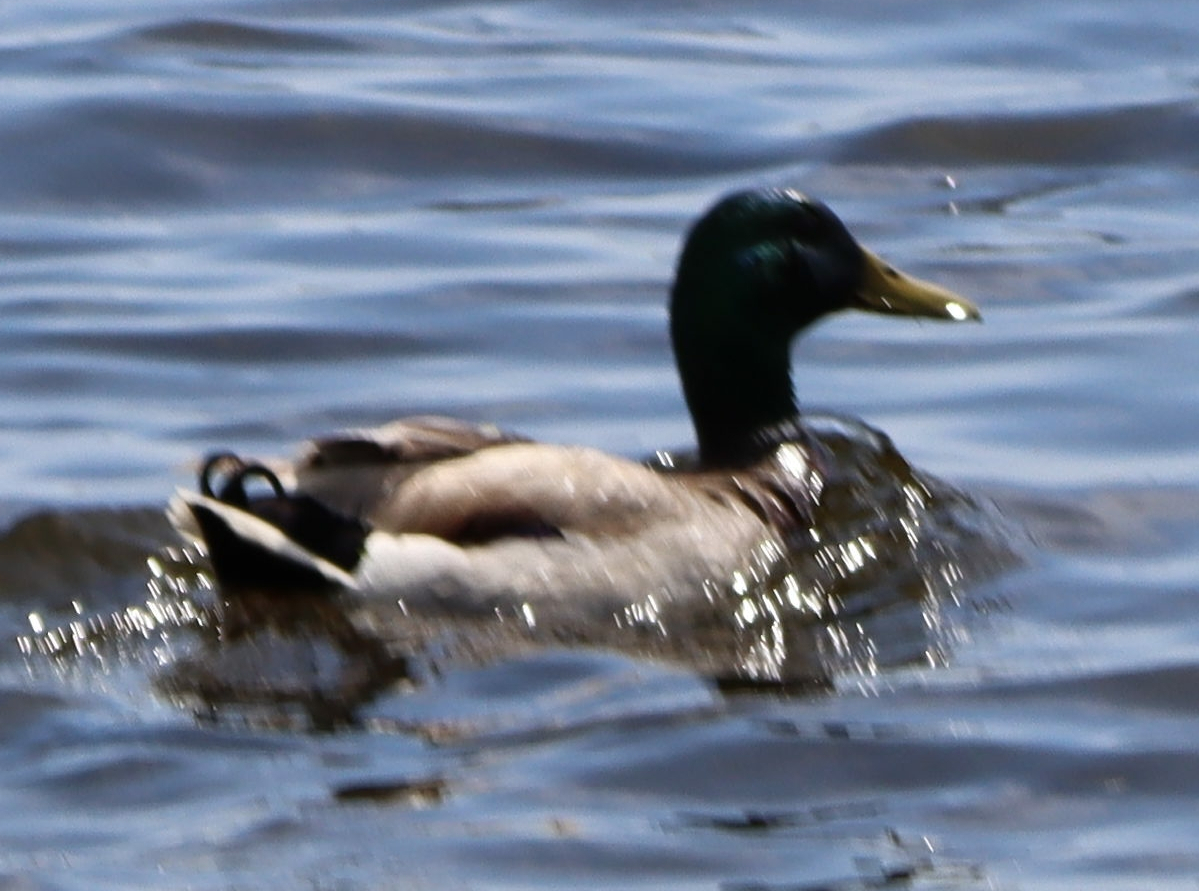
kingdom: Animalia
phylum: Chordata
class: Aves
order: Anseriformes
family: Anatidae
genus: Anas
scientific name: Anas platyrhynchos
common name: Mallard
